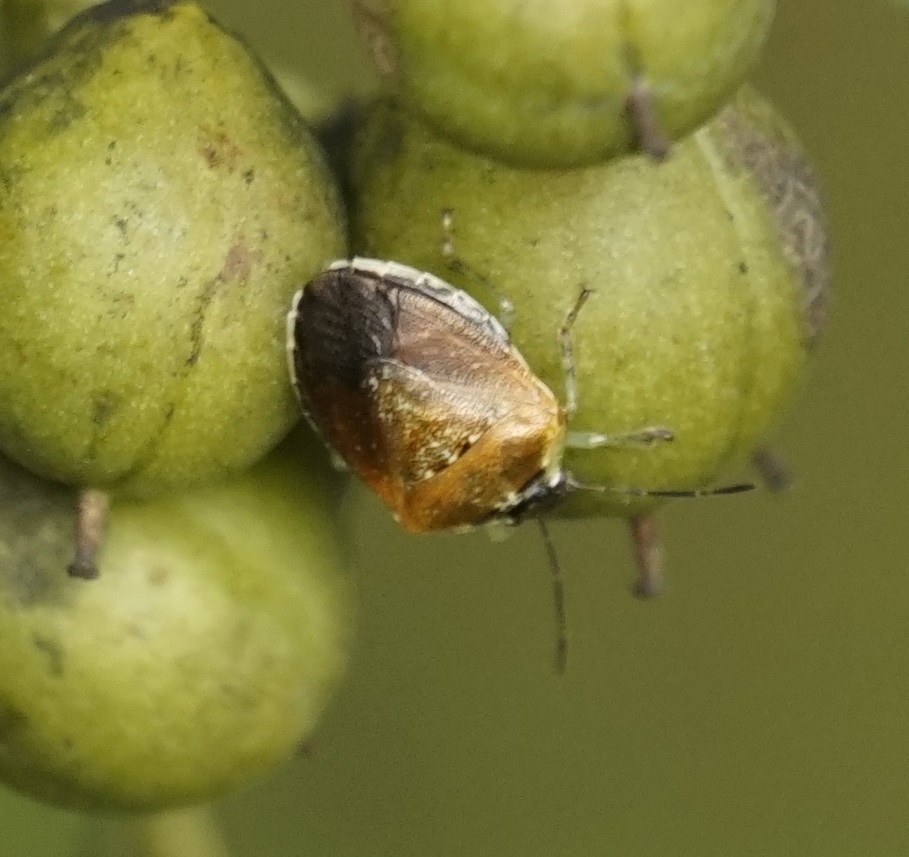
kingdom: Animalia
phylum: Arthropoda
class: Insecta
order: Hemiptera
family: Pentatomidae
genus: Monteithiella
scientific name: Monteithiella
